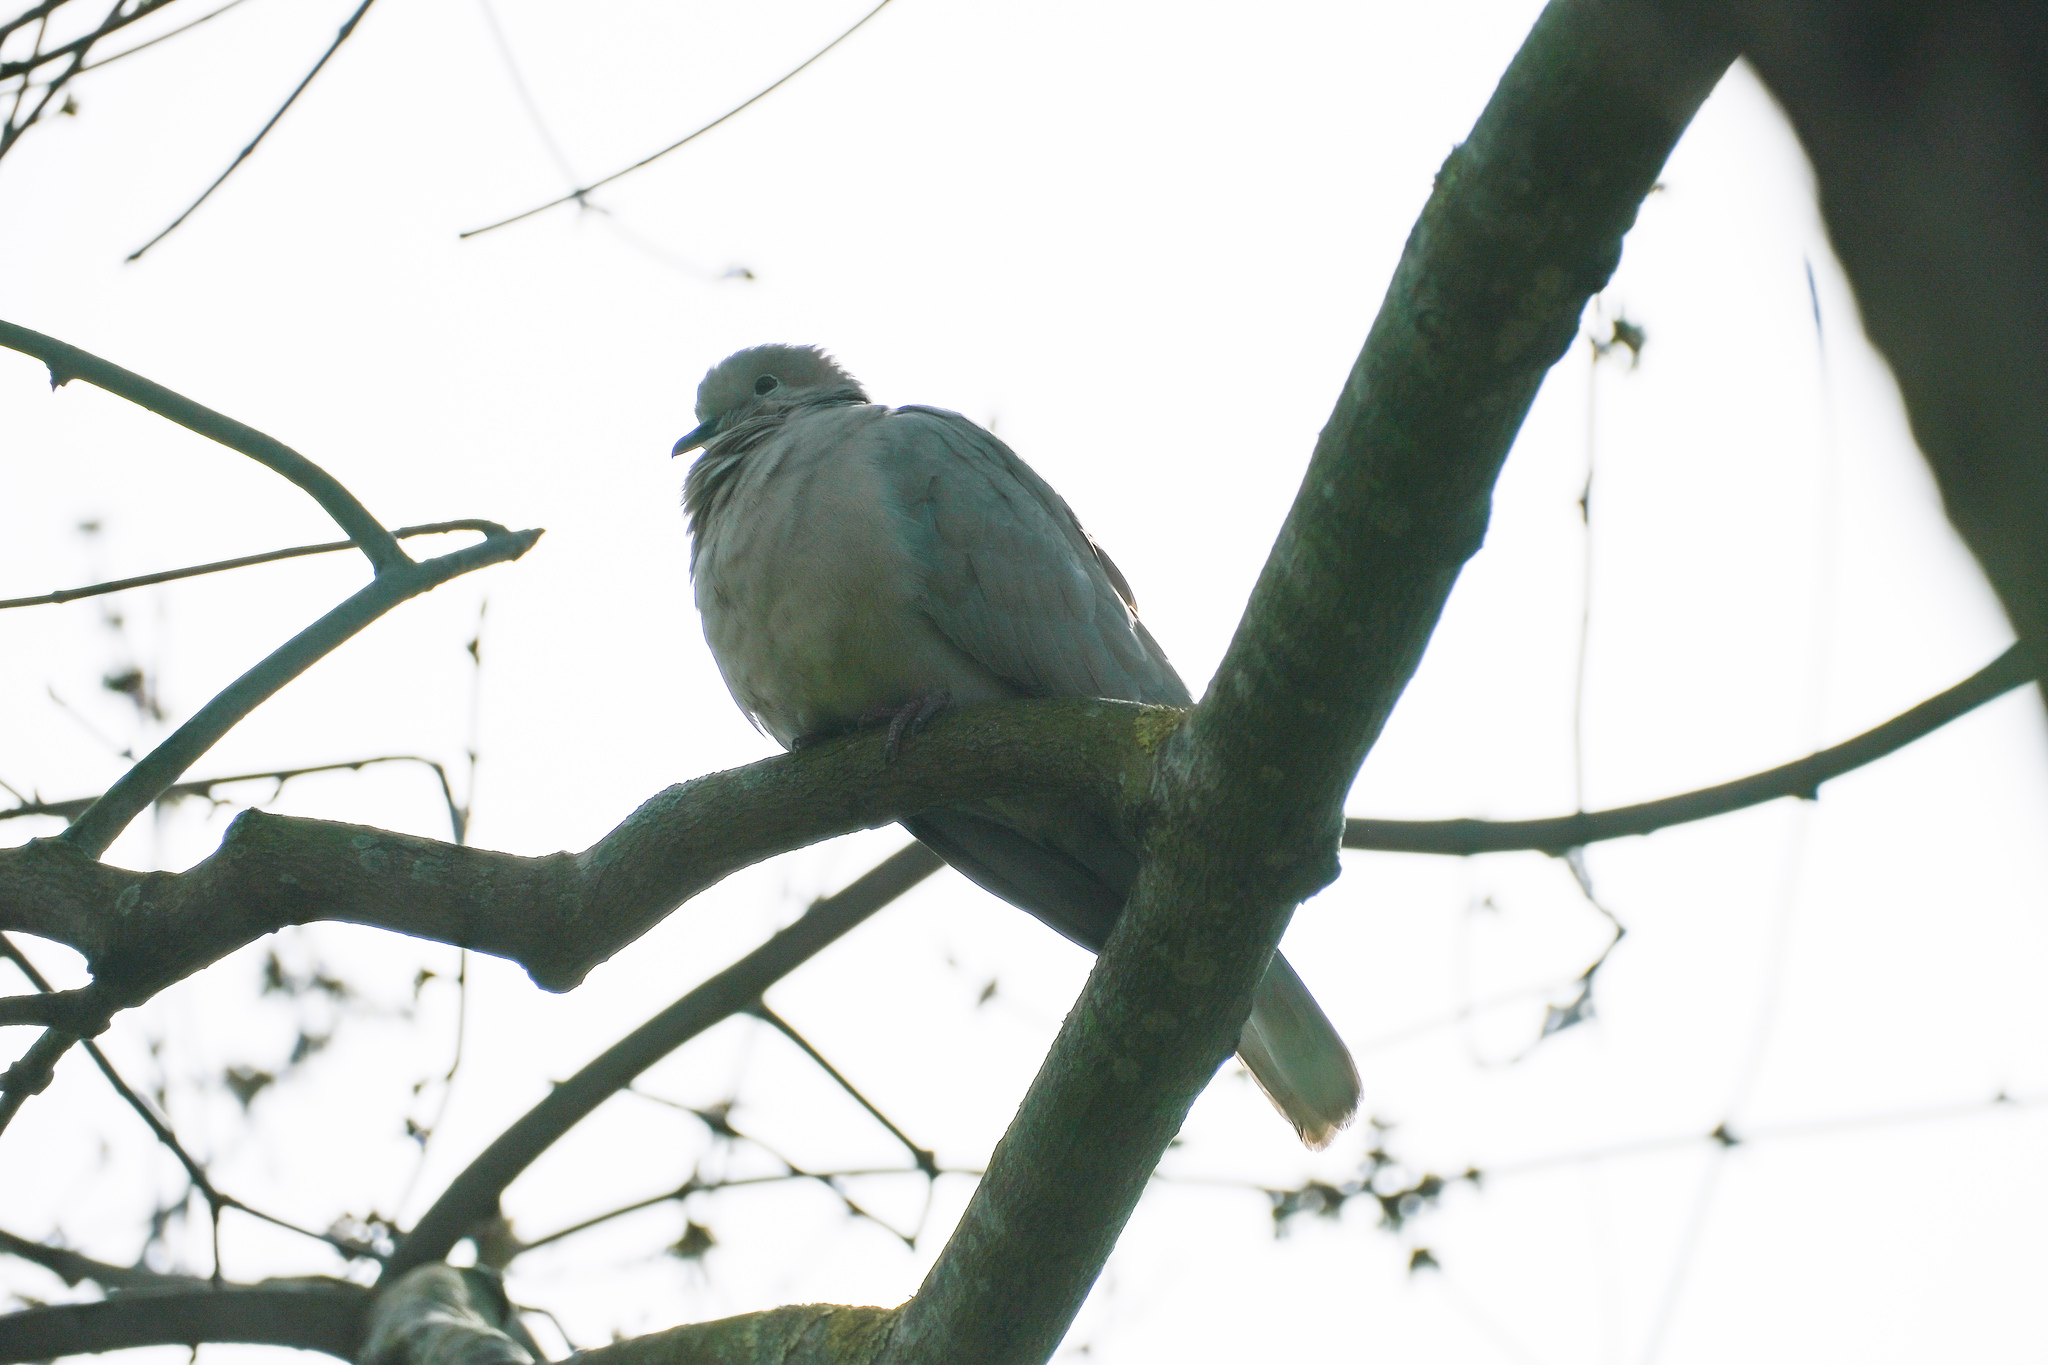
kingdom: Animalia
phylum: Chordata
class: Aves
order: Columbiformes
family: Columbidae
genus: Streptopelia
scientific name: Streptopelia decaocto
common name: Eurasian collared dove
